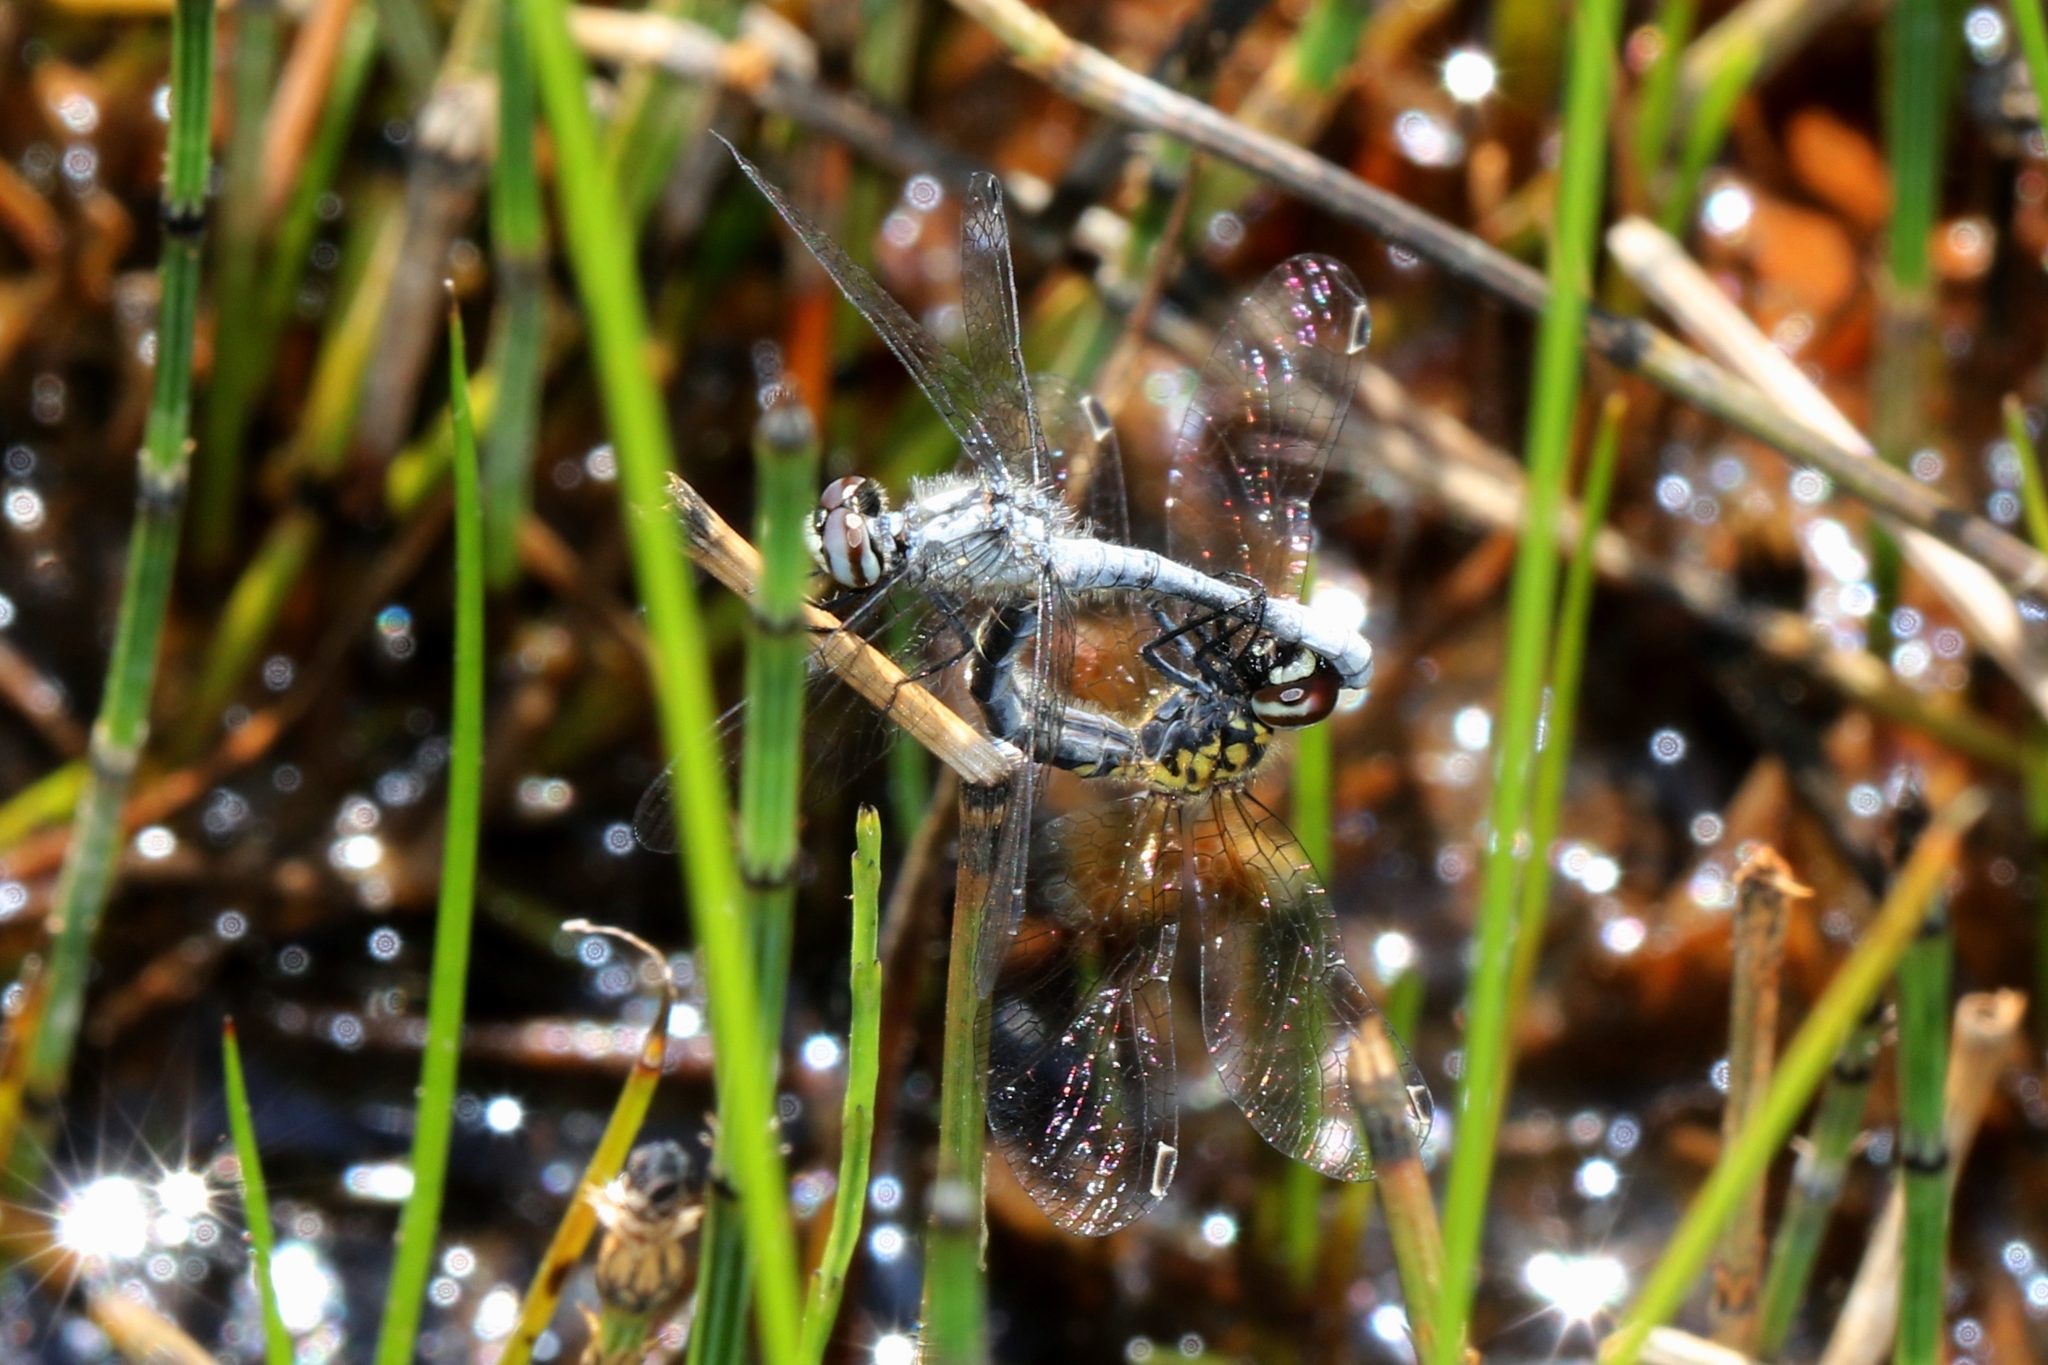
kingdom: Animalia
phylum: Arthropoda
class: Insecta
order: Odonata
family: Libellulidae
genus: Nannothemis
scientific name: Nannothemis bella
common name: Elfin skimmer
